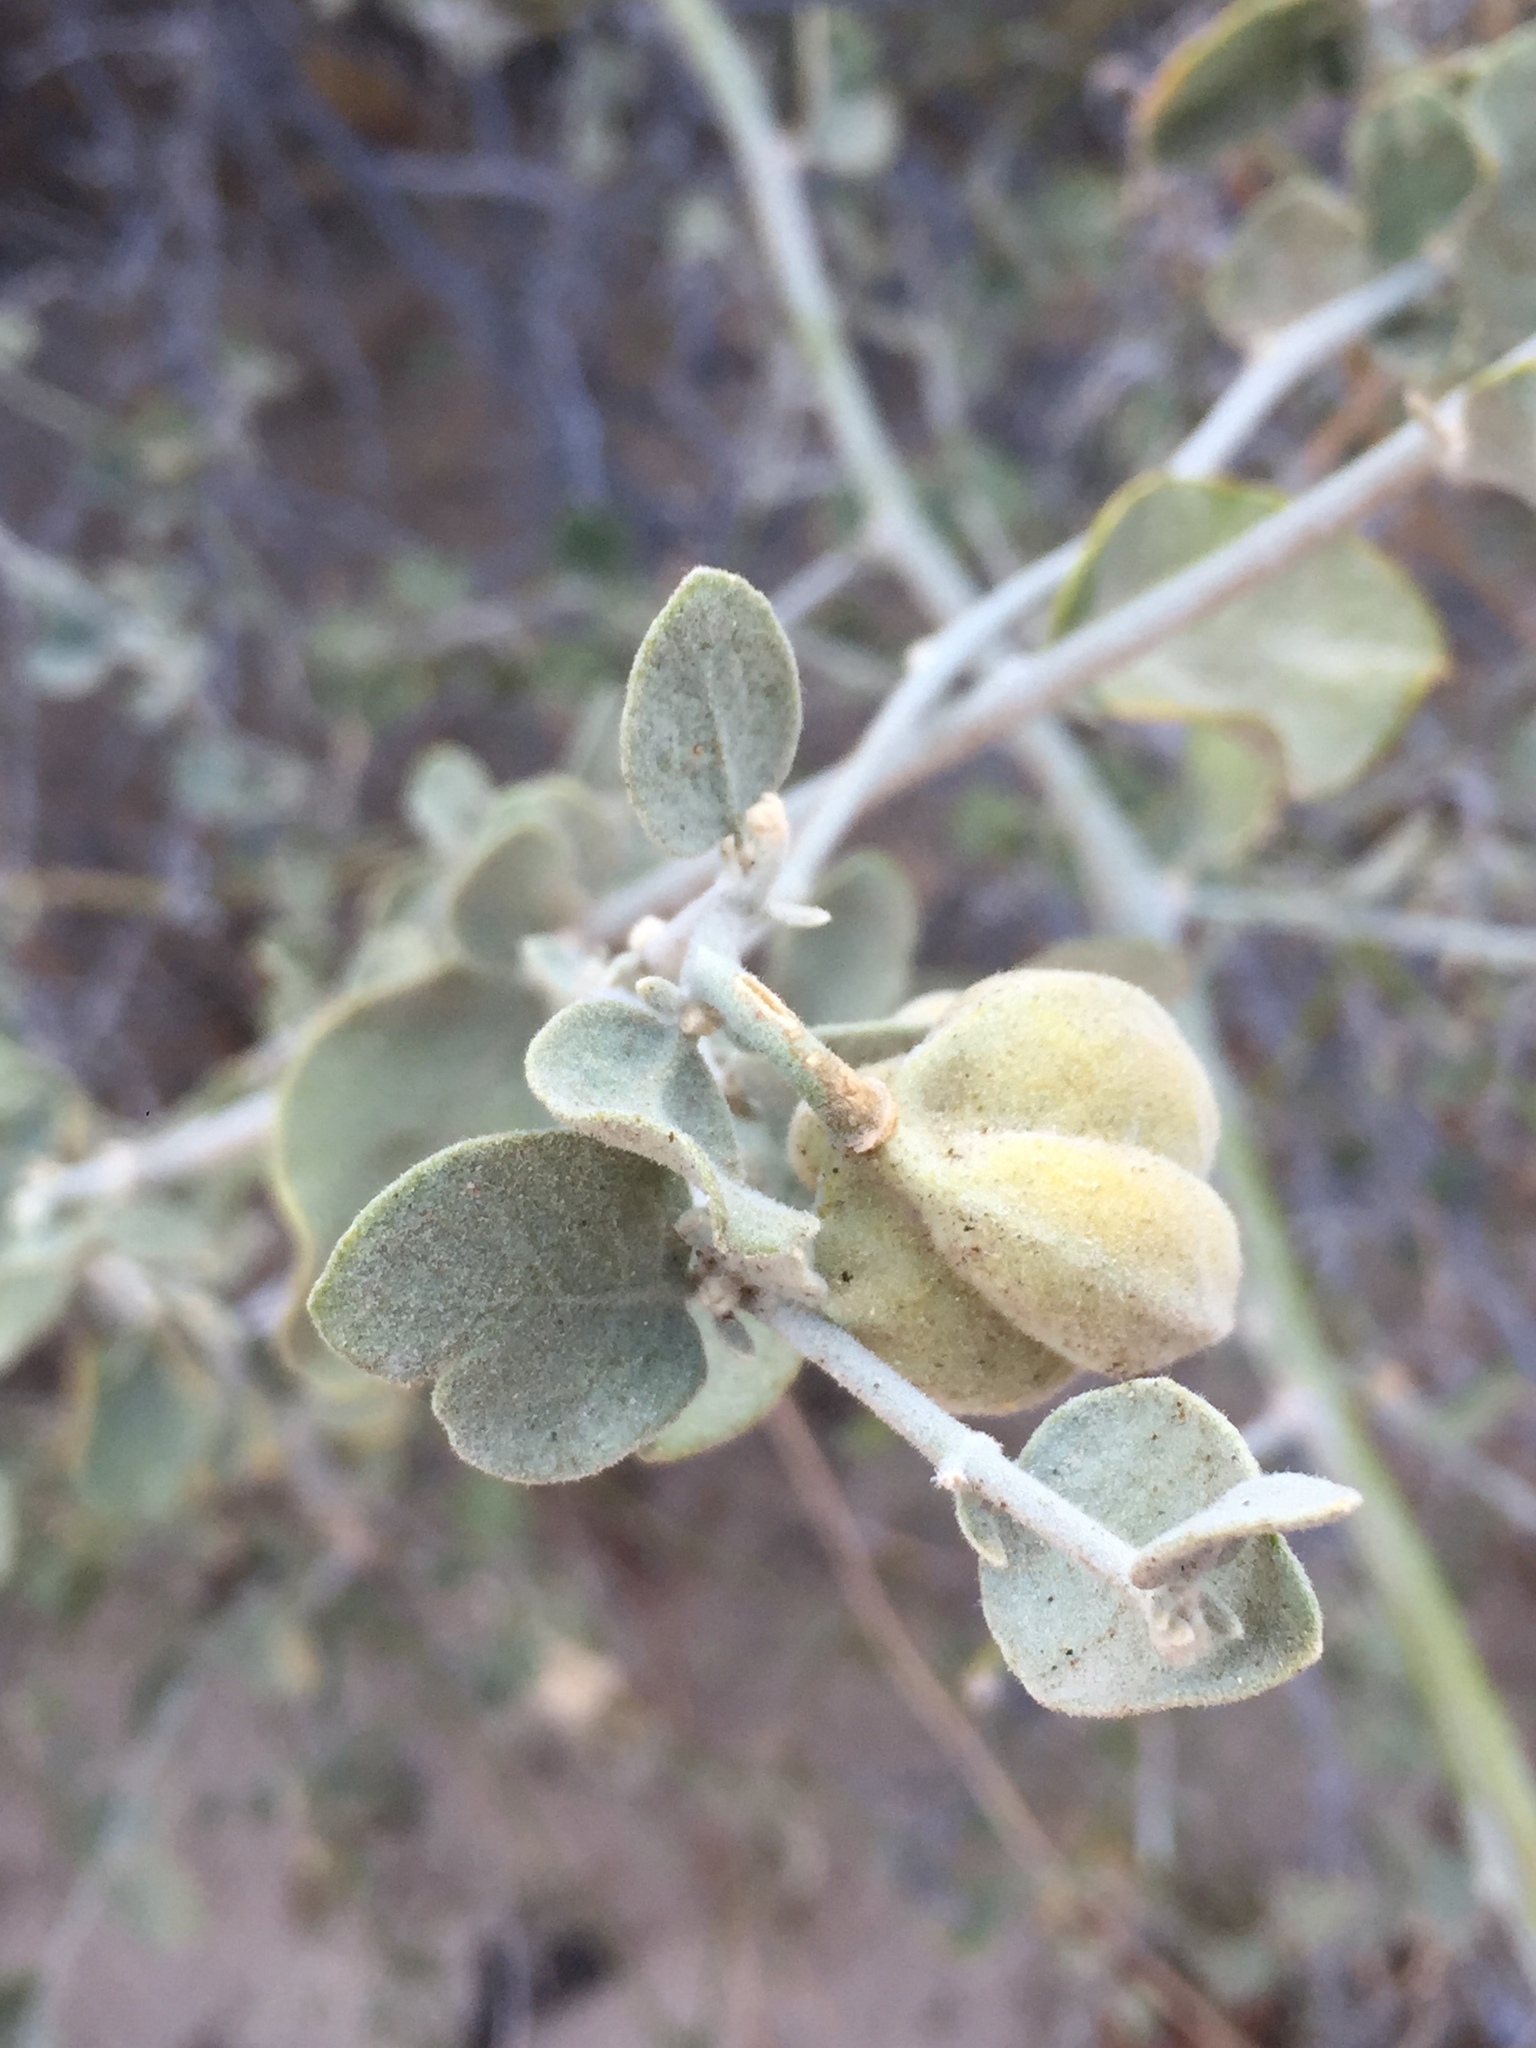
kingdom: Plantae
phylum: Tracheophyta
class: Magnoliopsida
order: Zygophyllales
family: Zygophyllaceae
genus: Viscainoa
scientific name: Viscainoa geniculata
